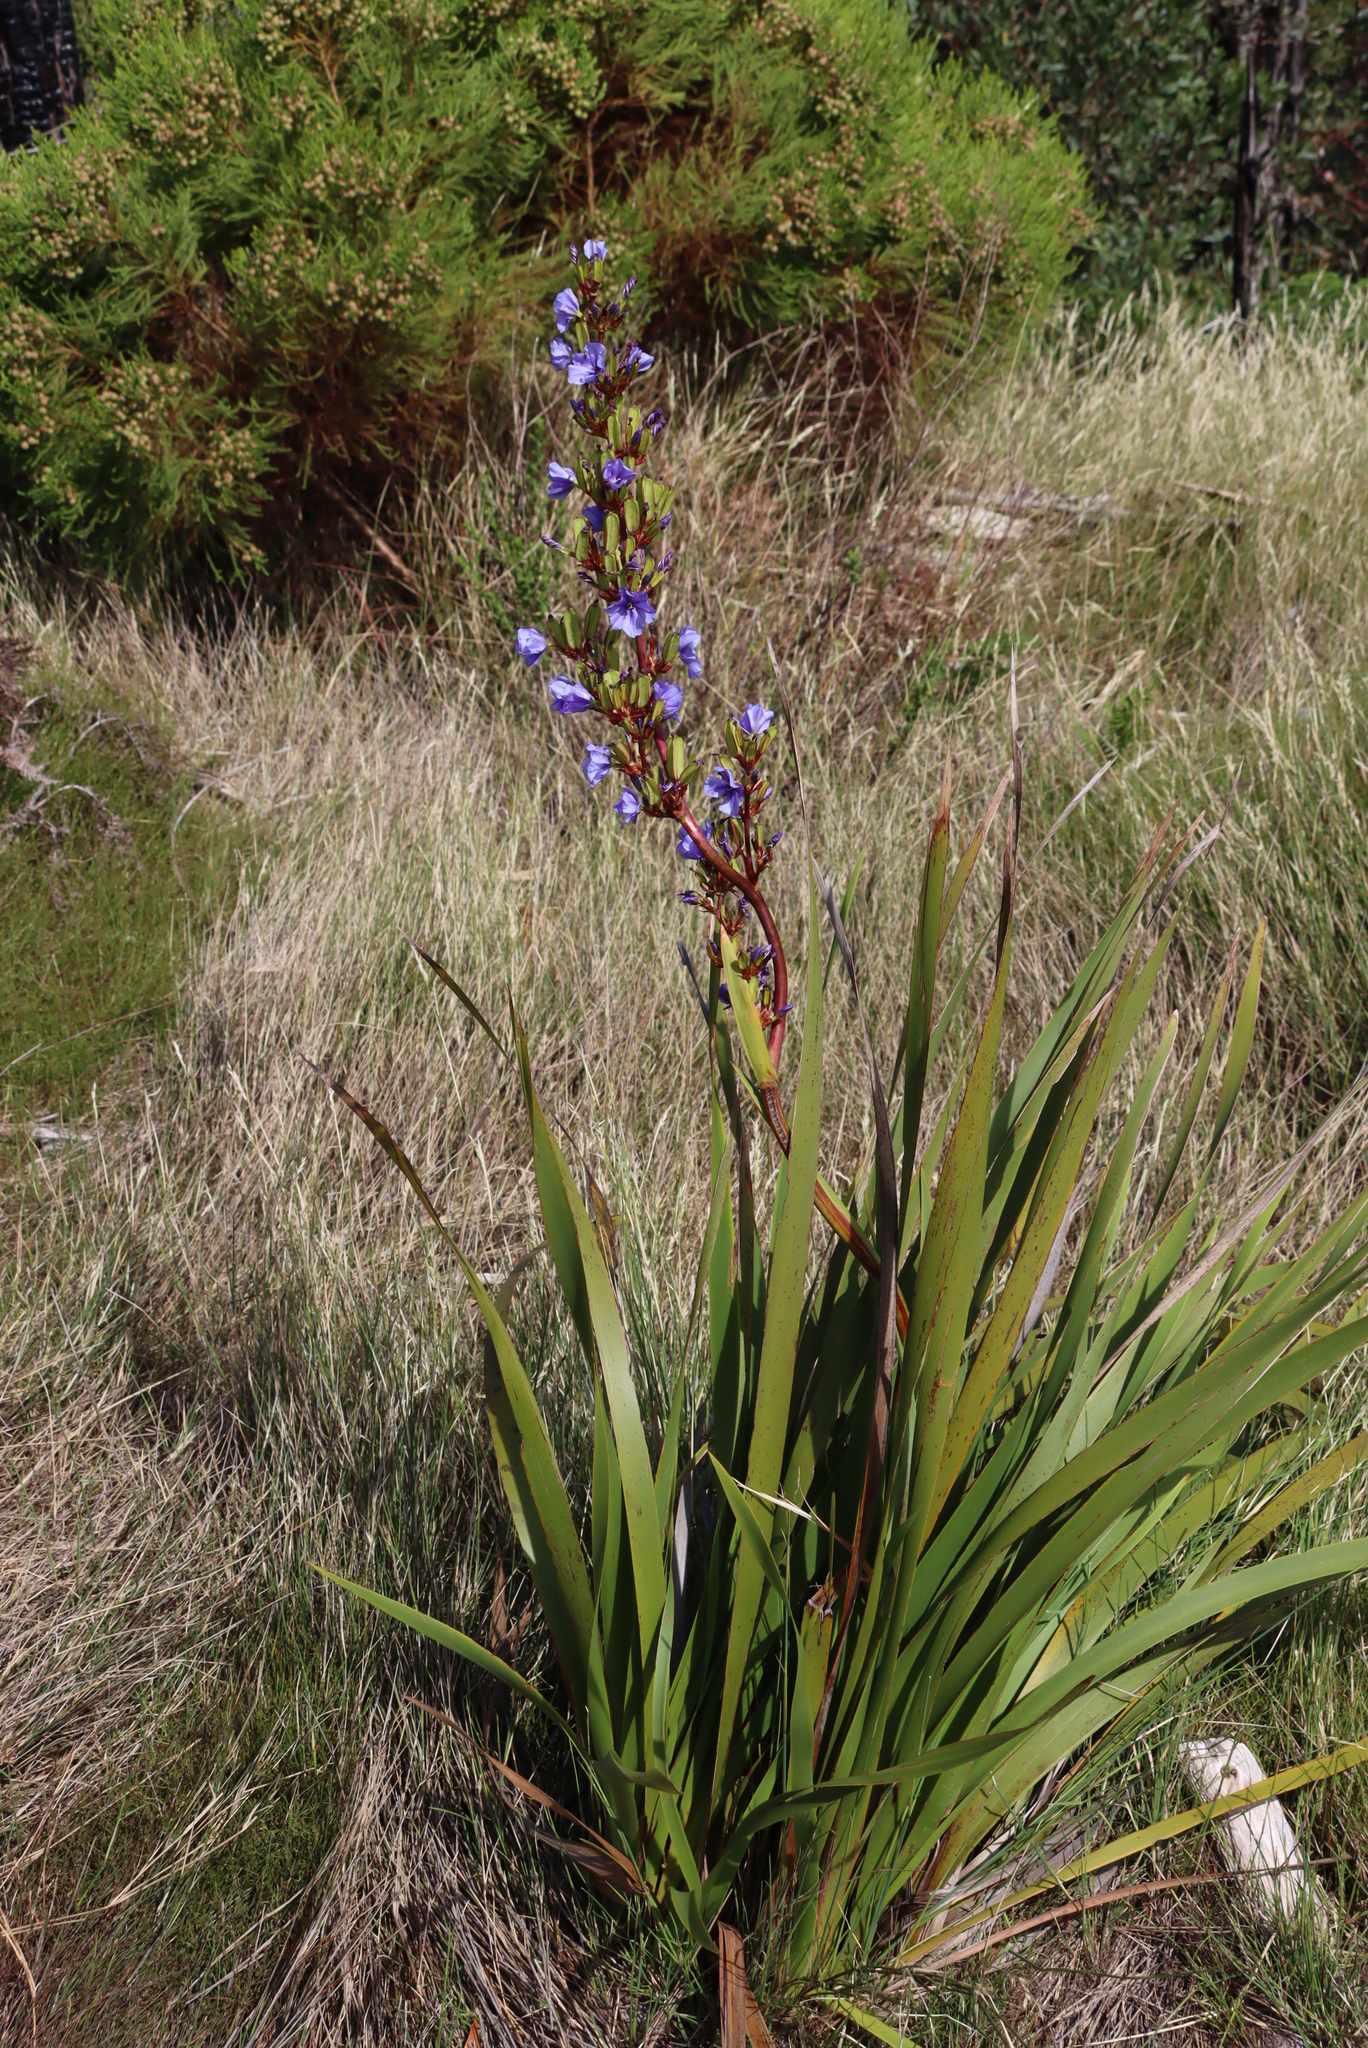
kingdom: Plantae
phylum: Tracheophyta
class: Liliopsida
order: Asparagales
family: Iridaceae
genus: Aristea
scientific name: Aristea bakeri
